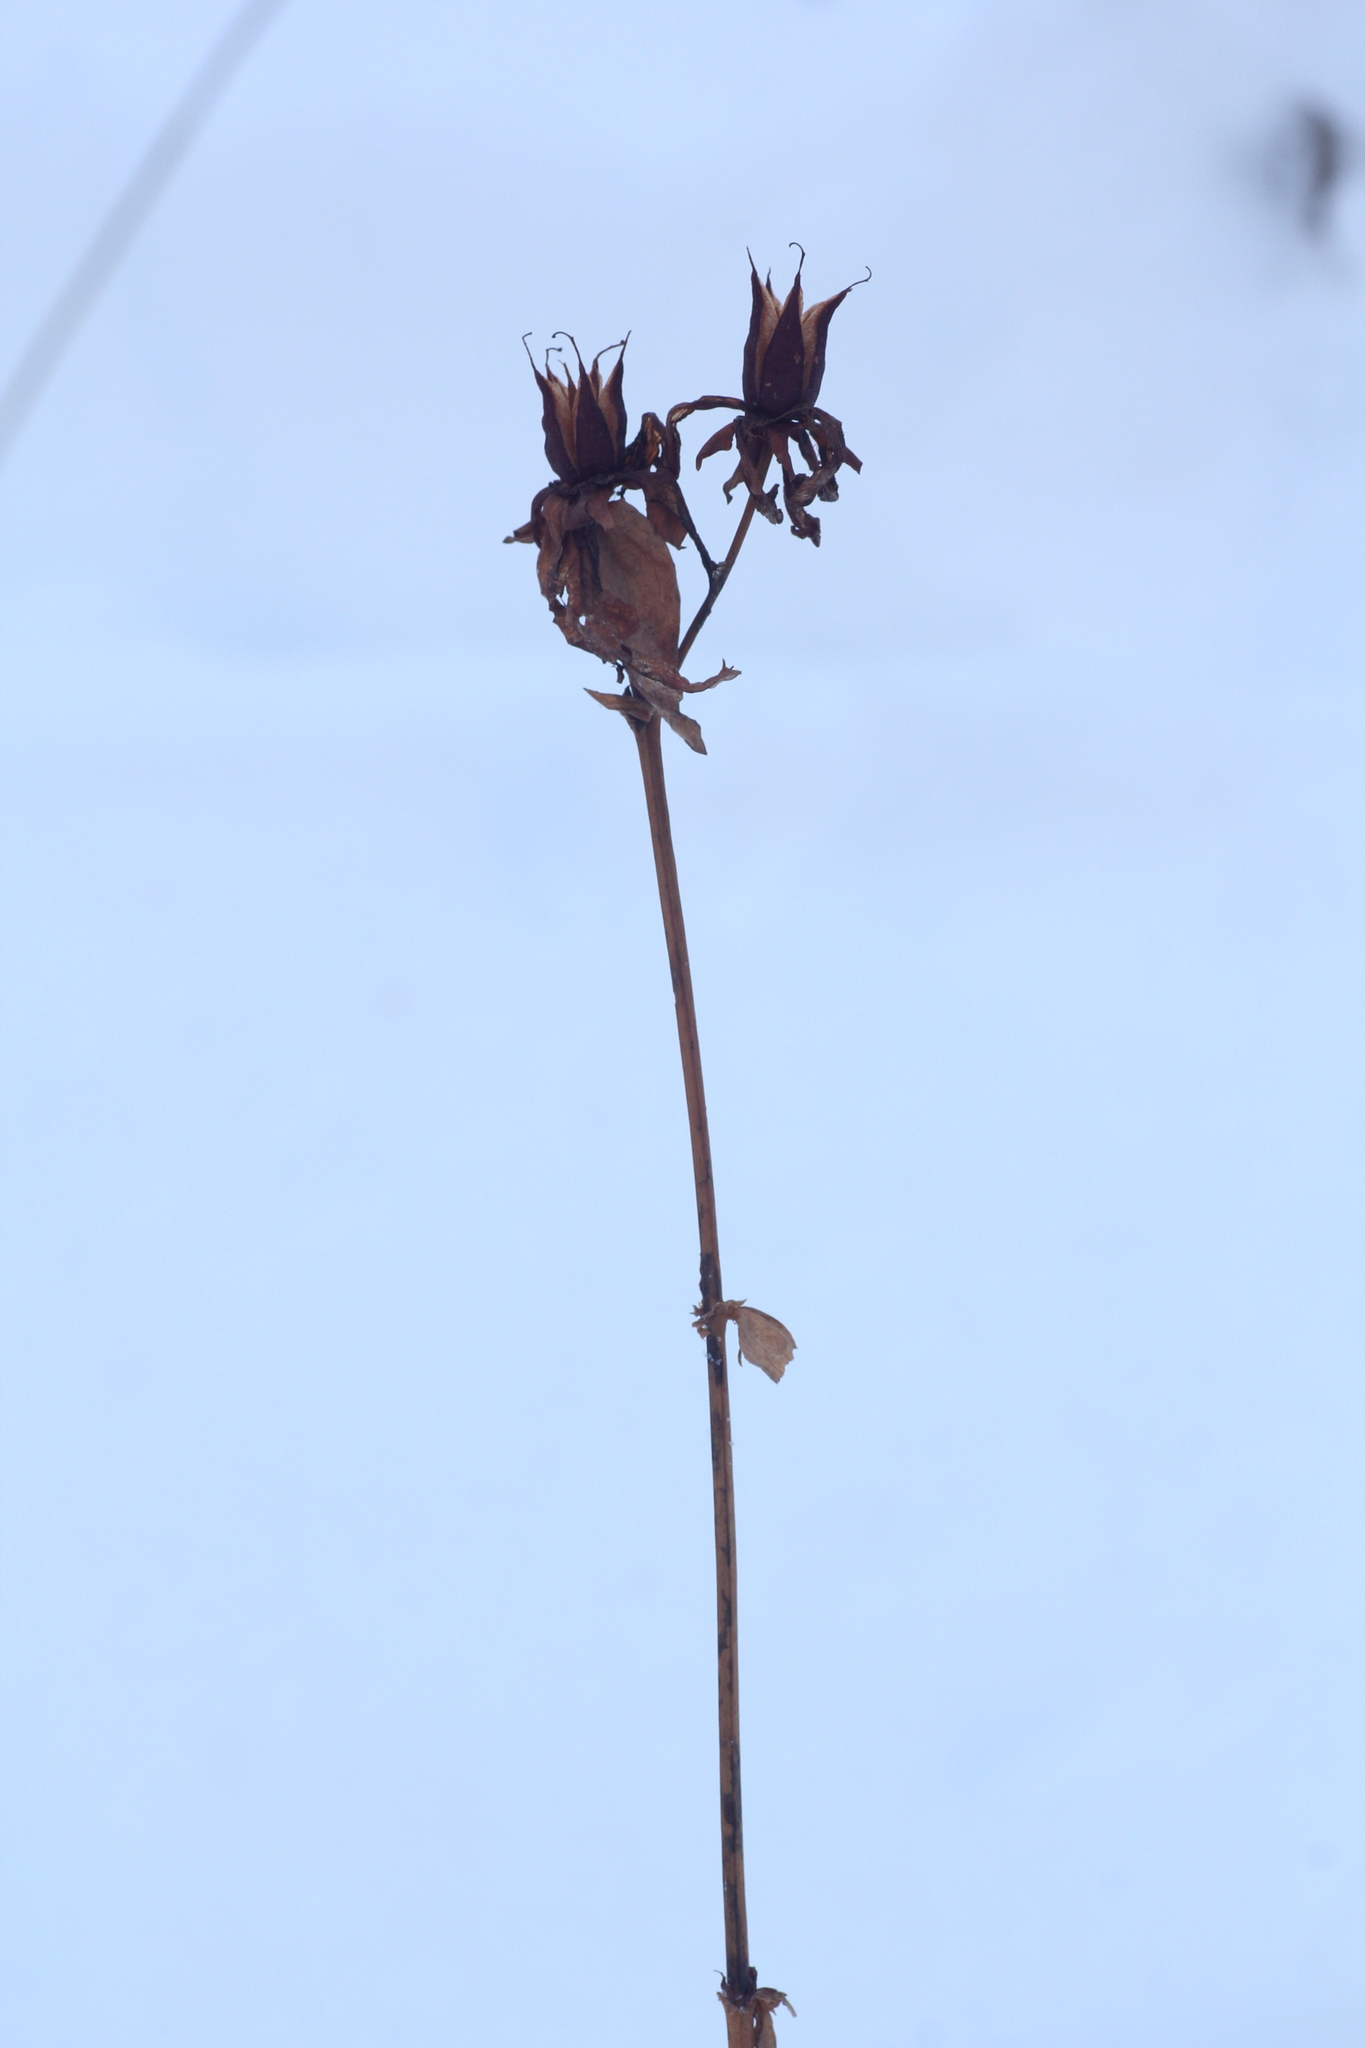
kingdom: Plantae
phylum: Tracheophyta
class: Magnoliopsida
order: Malpighiales
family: Hypericaceae
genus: Hypericum
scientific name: Hypericum ascyron
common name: Giant st. john's-wort
